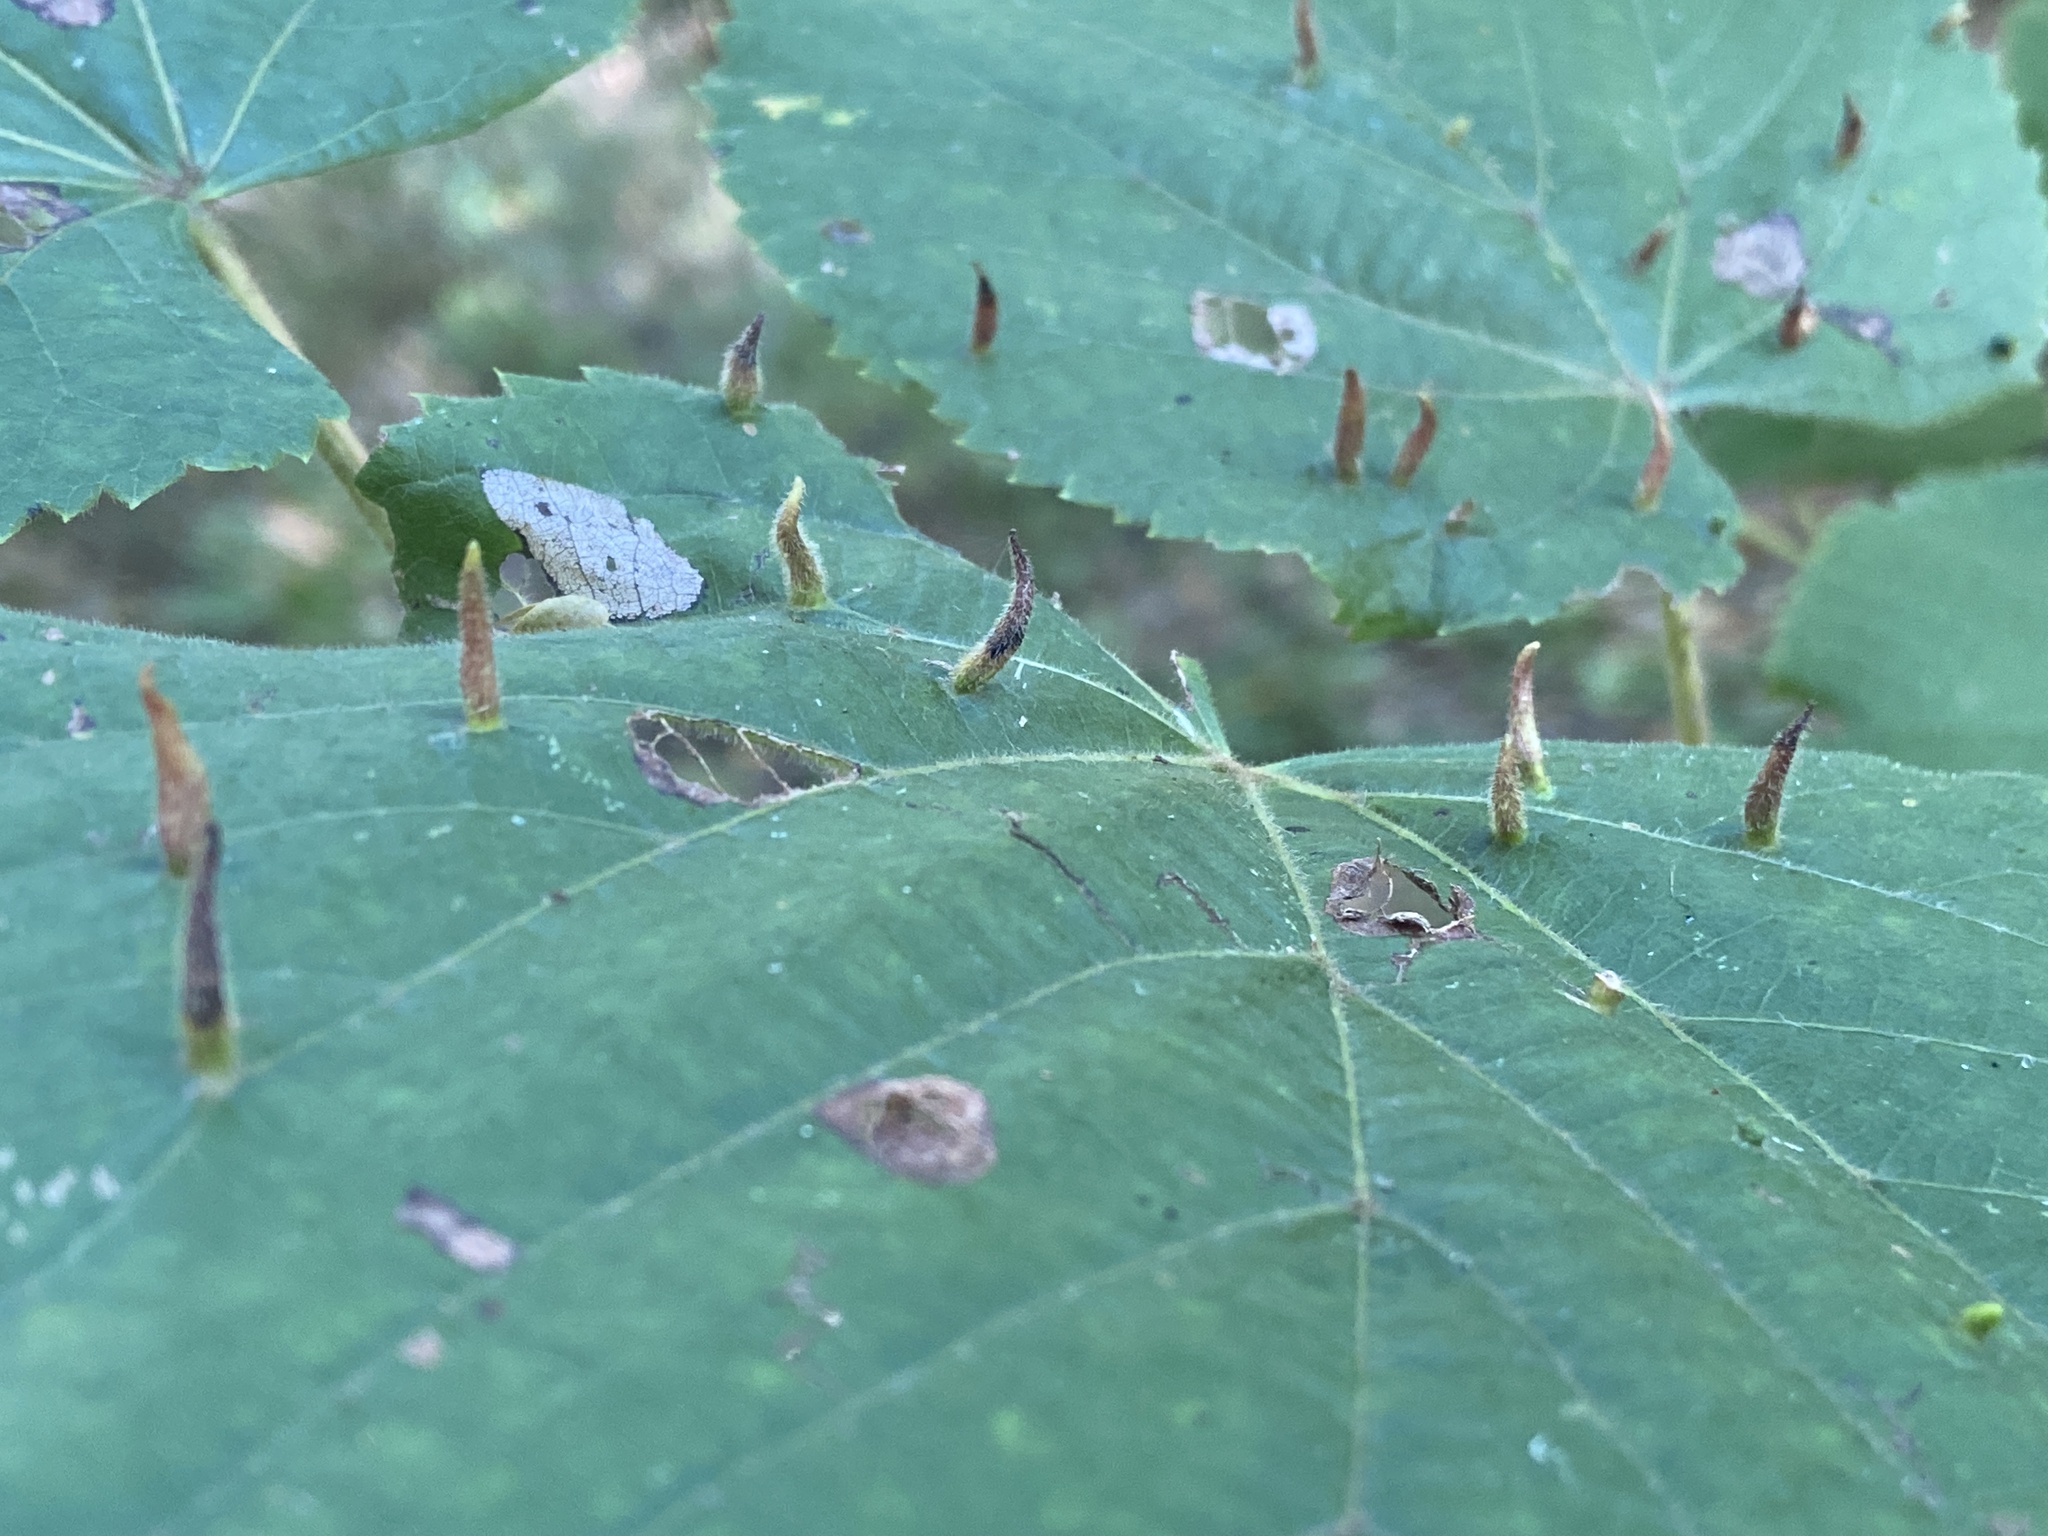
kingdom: Animalia
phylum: Arthropoda
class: Arachnida
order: Trombidiformes
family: Eriophyidae
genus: Eriophyes
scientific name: Eriophyes tiliae
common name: Red nail gall mite
